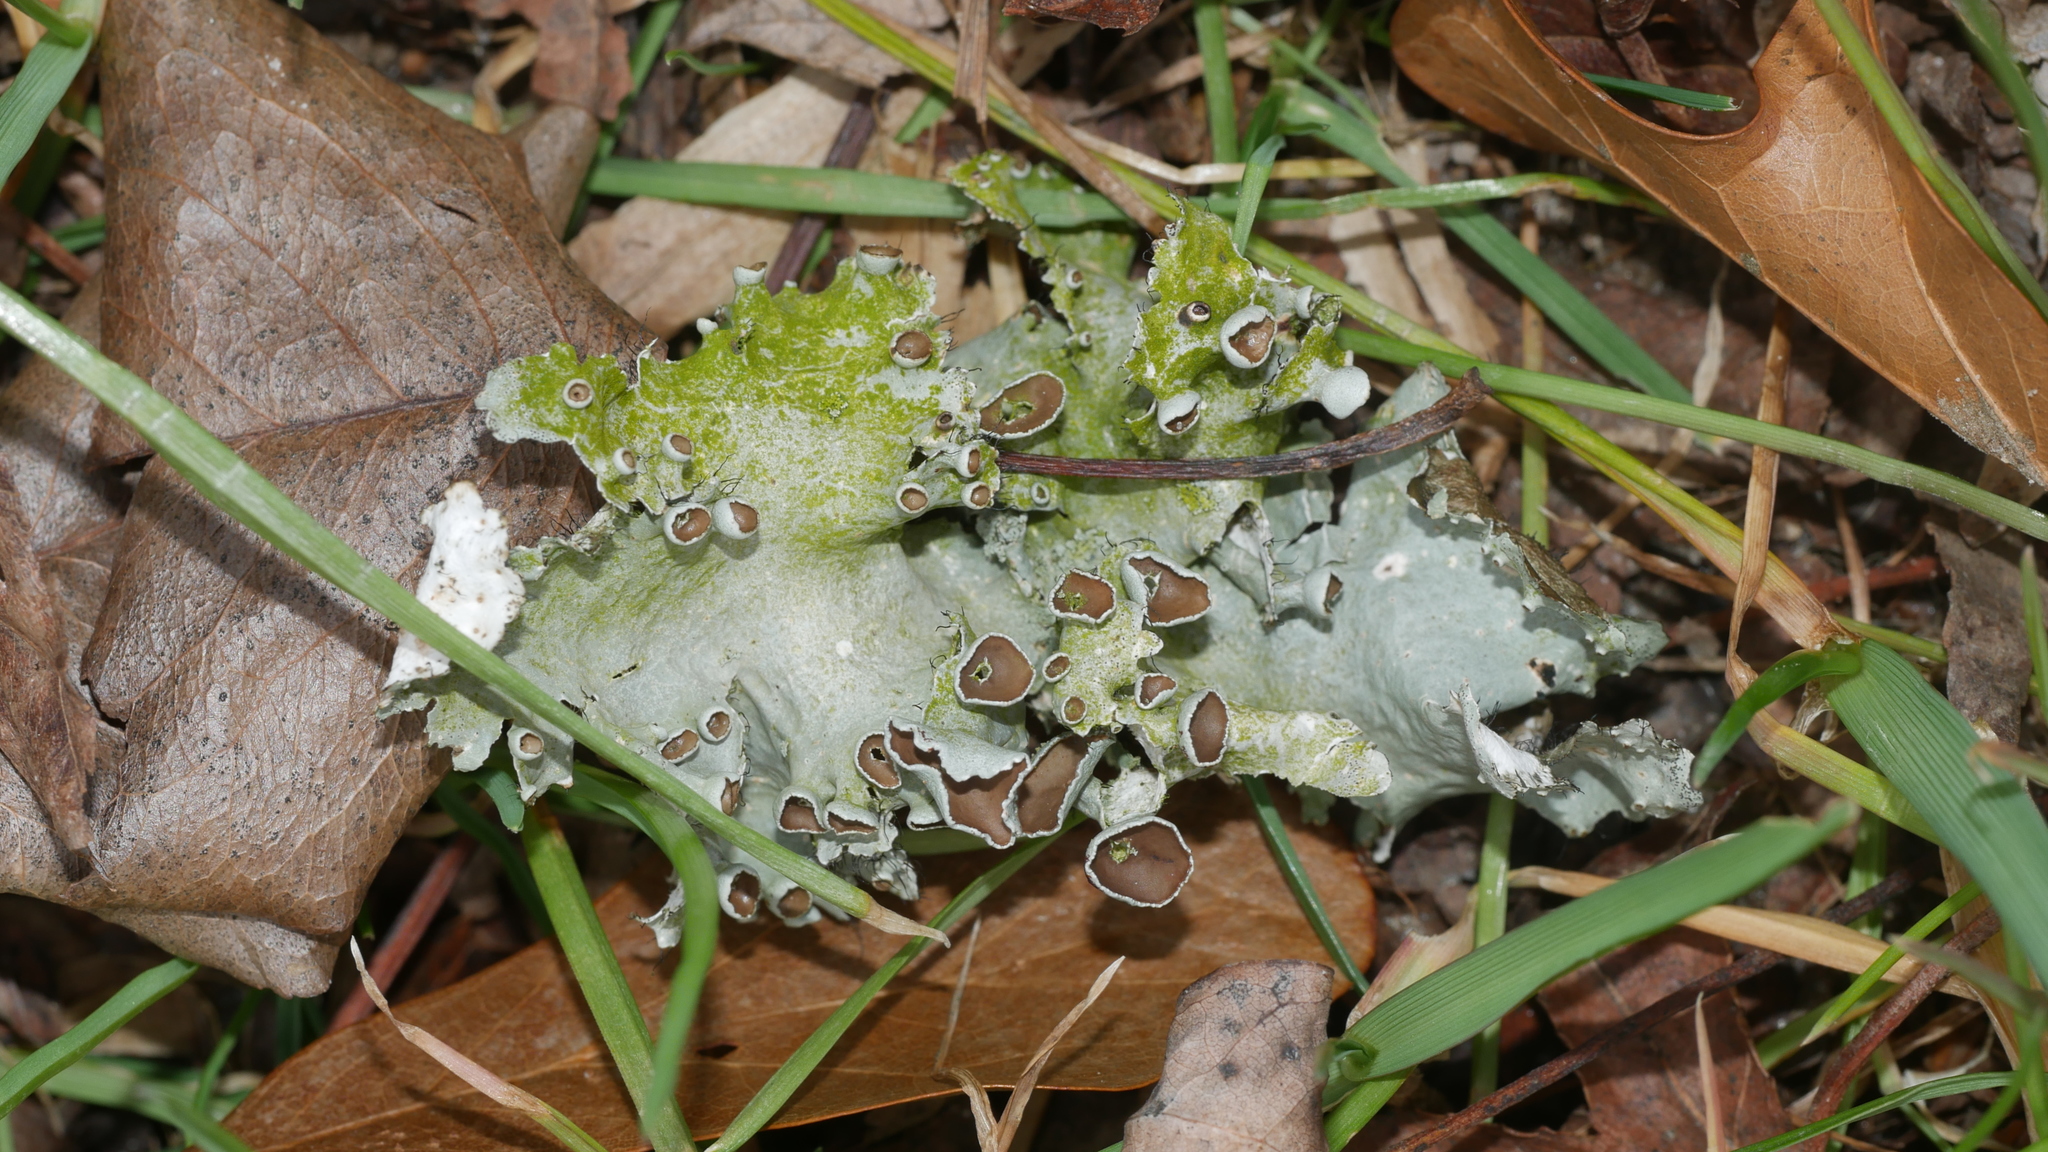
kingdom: Fungi
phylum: Ascomycota
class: Lecanoromycetes
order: Lecanorales
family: Parmeliaceae
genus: Parmotrema
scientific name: Parmotrema perforatum
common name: Perforated ruffle lichen
